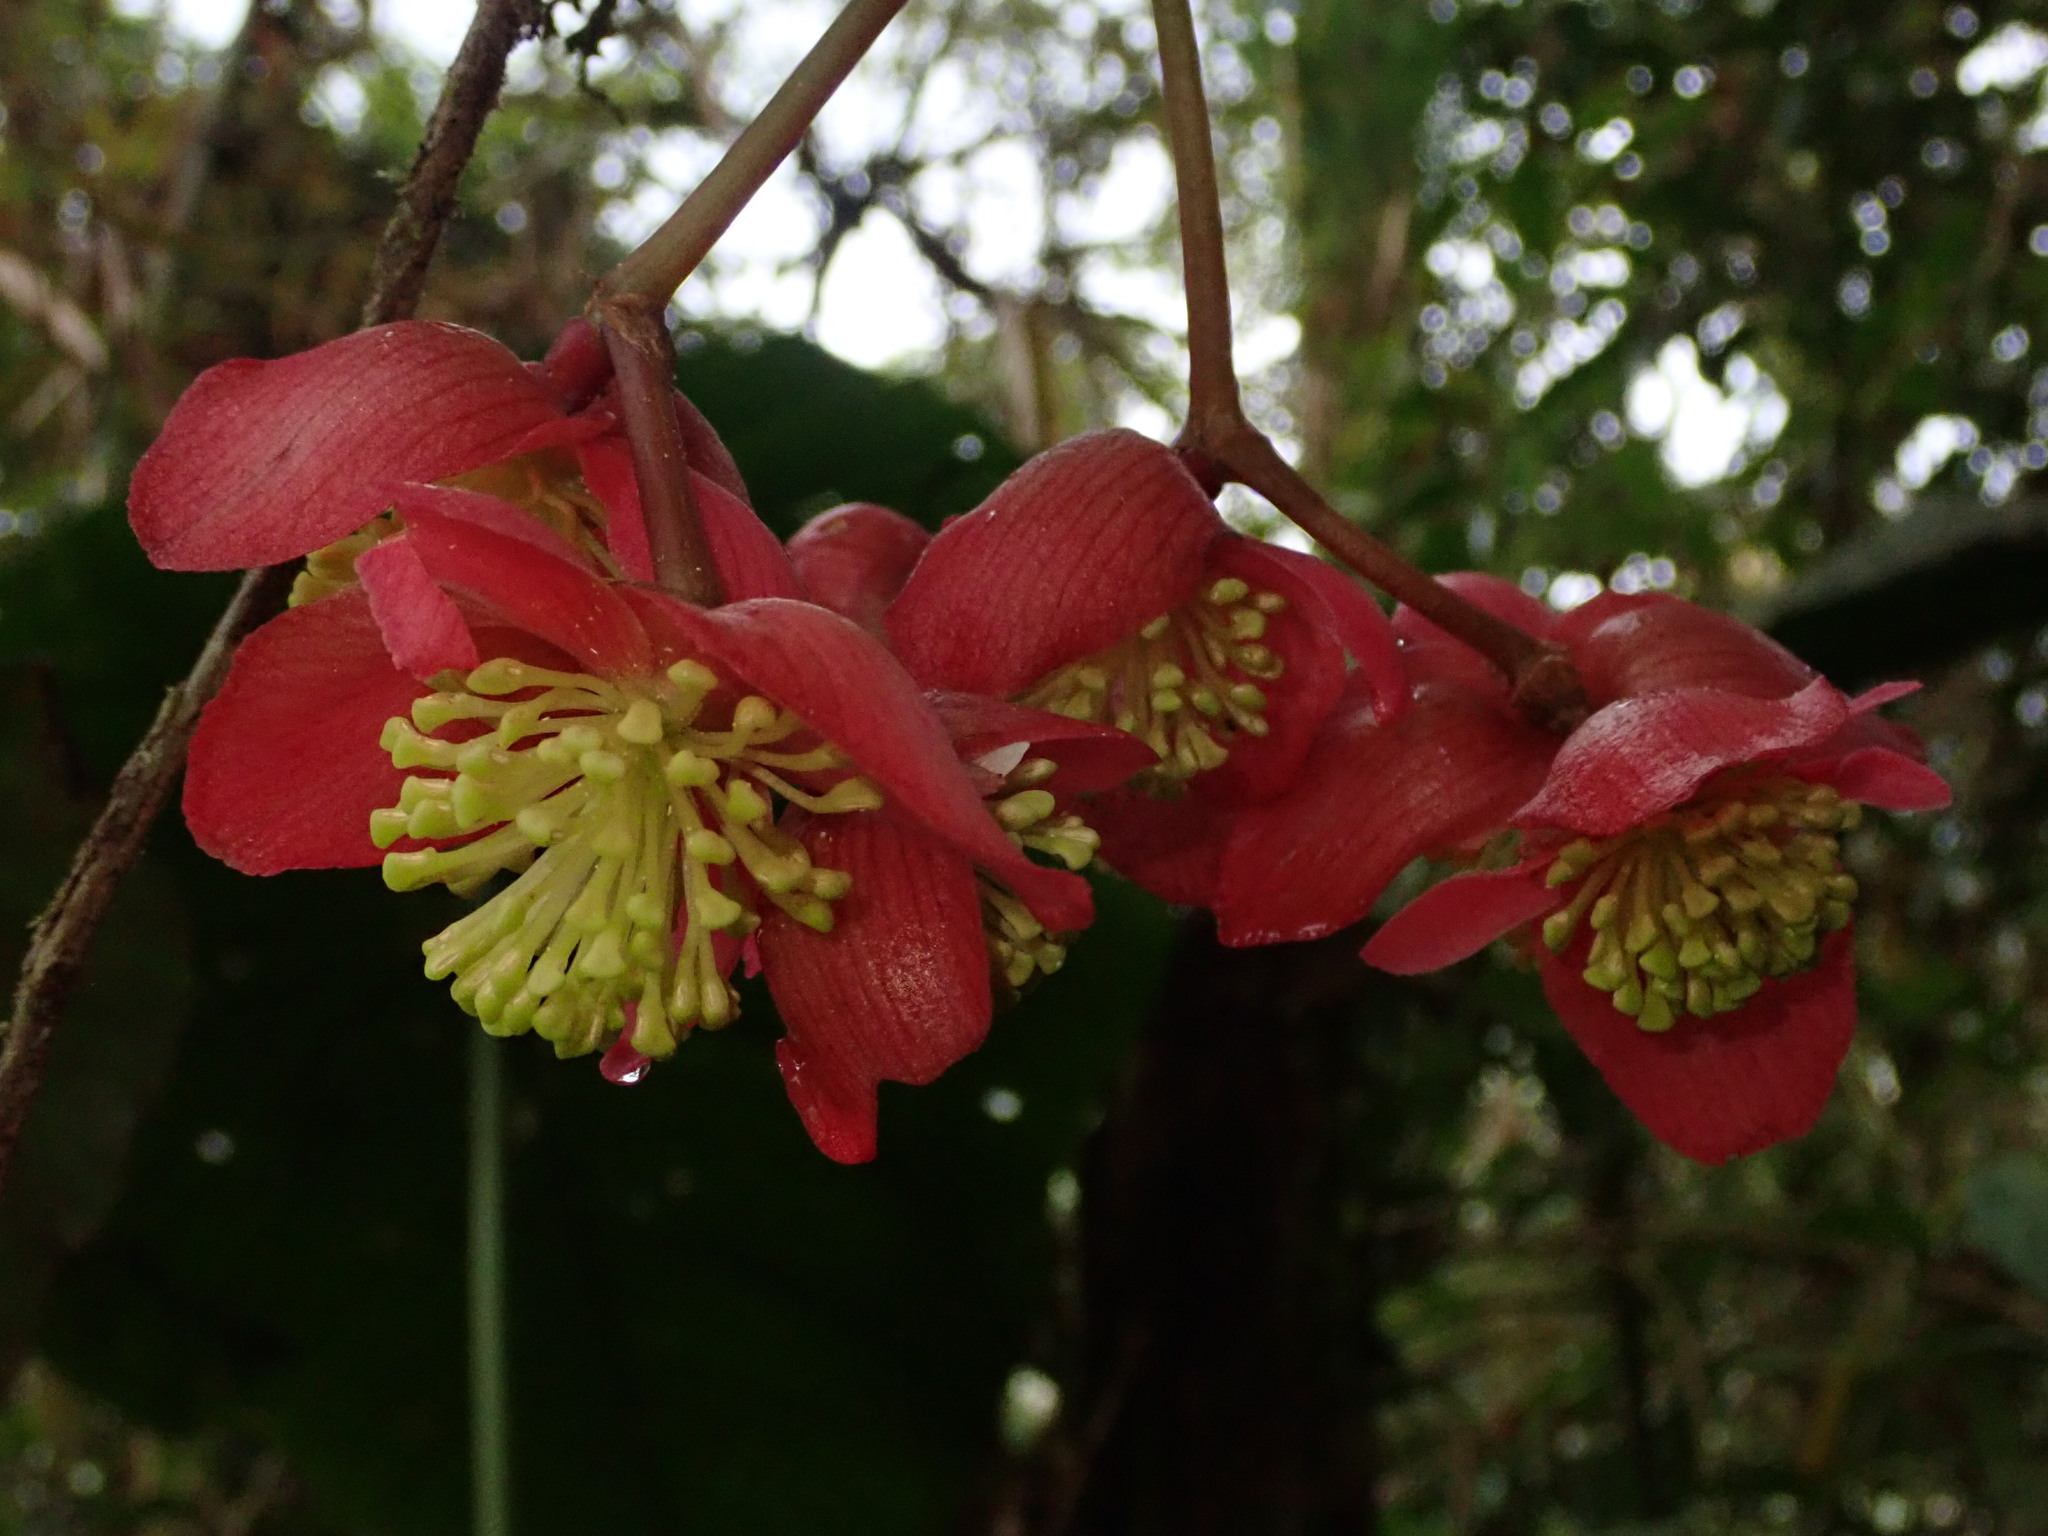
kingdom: Plantae
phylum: Tracheophyta
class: Magnoliopsida
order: Cucurbitales
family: Begoniaceae
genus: Begonia
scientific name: Begonia pululahuana
